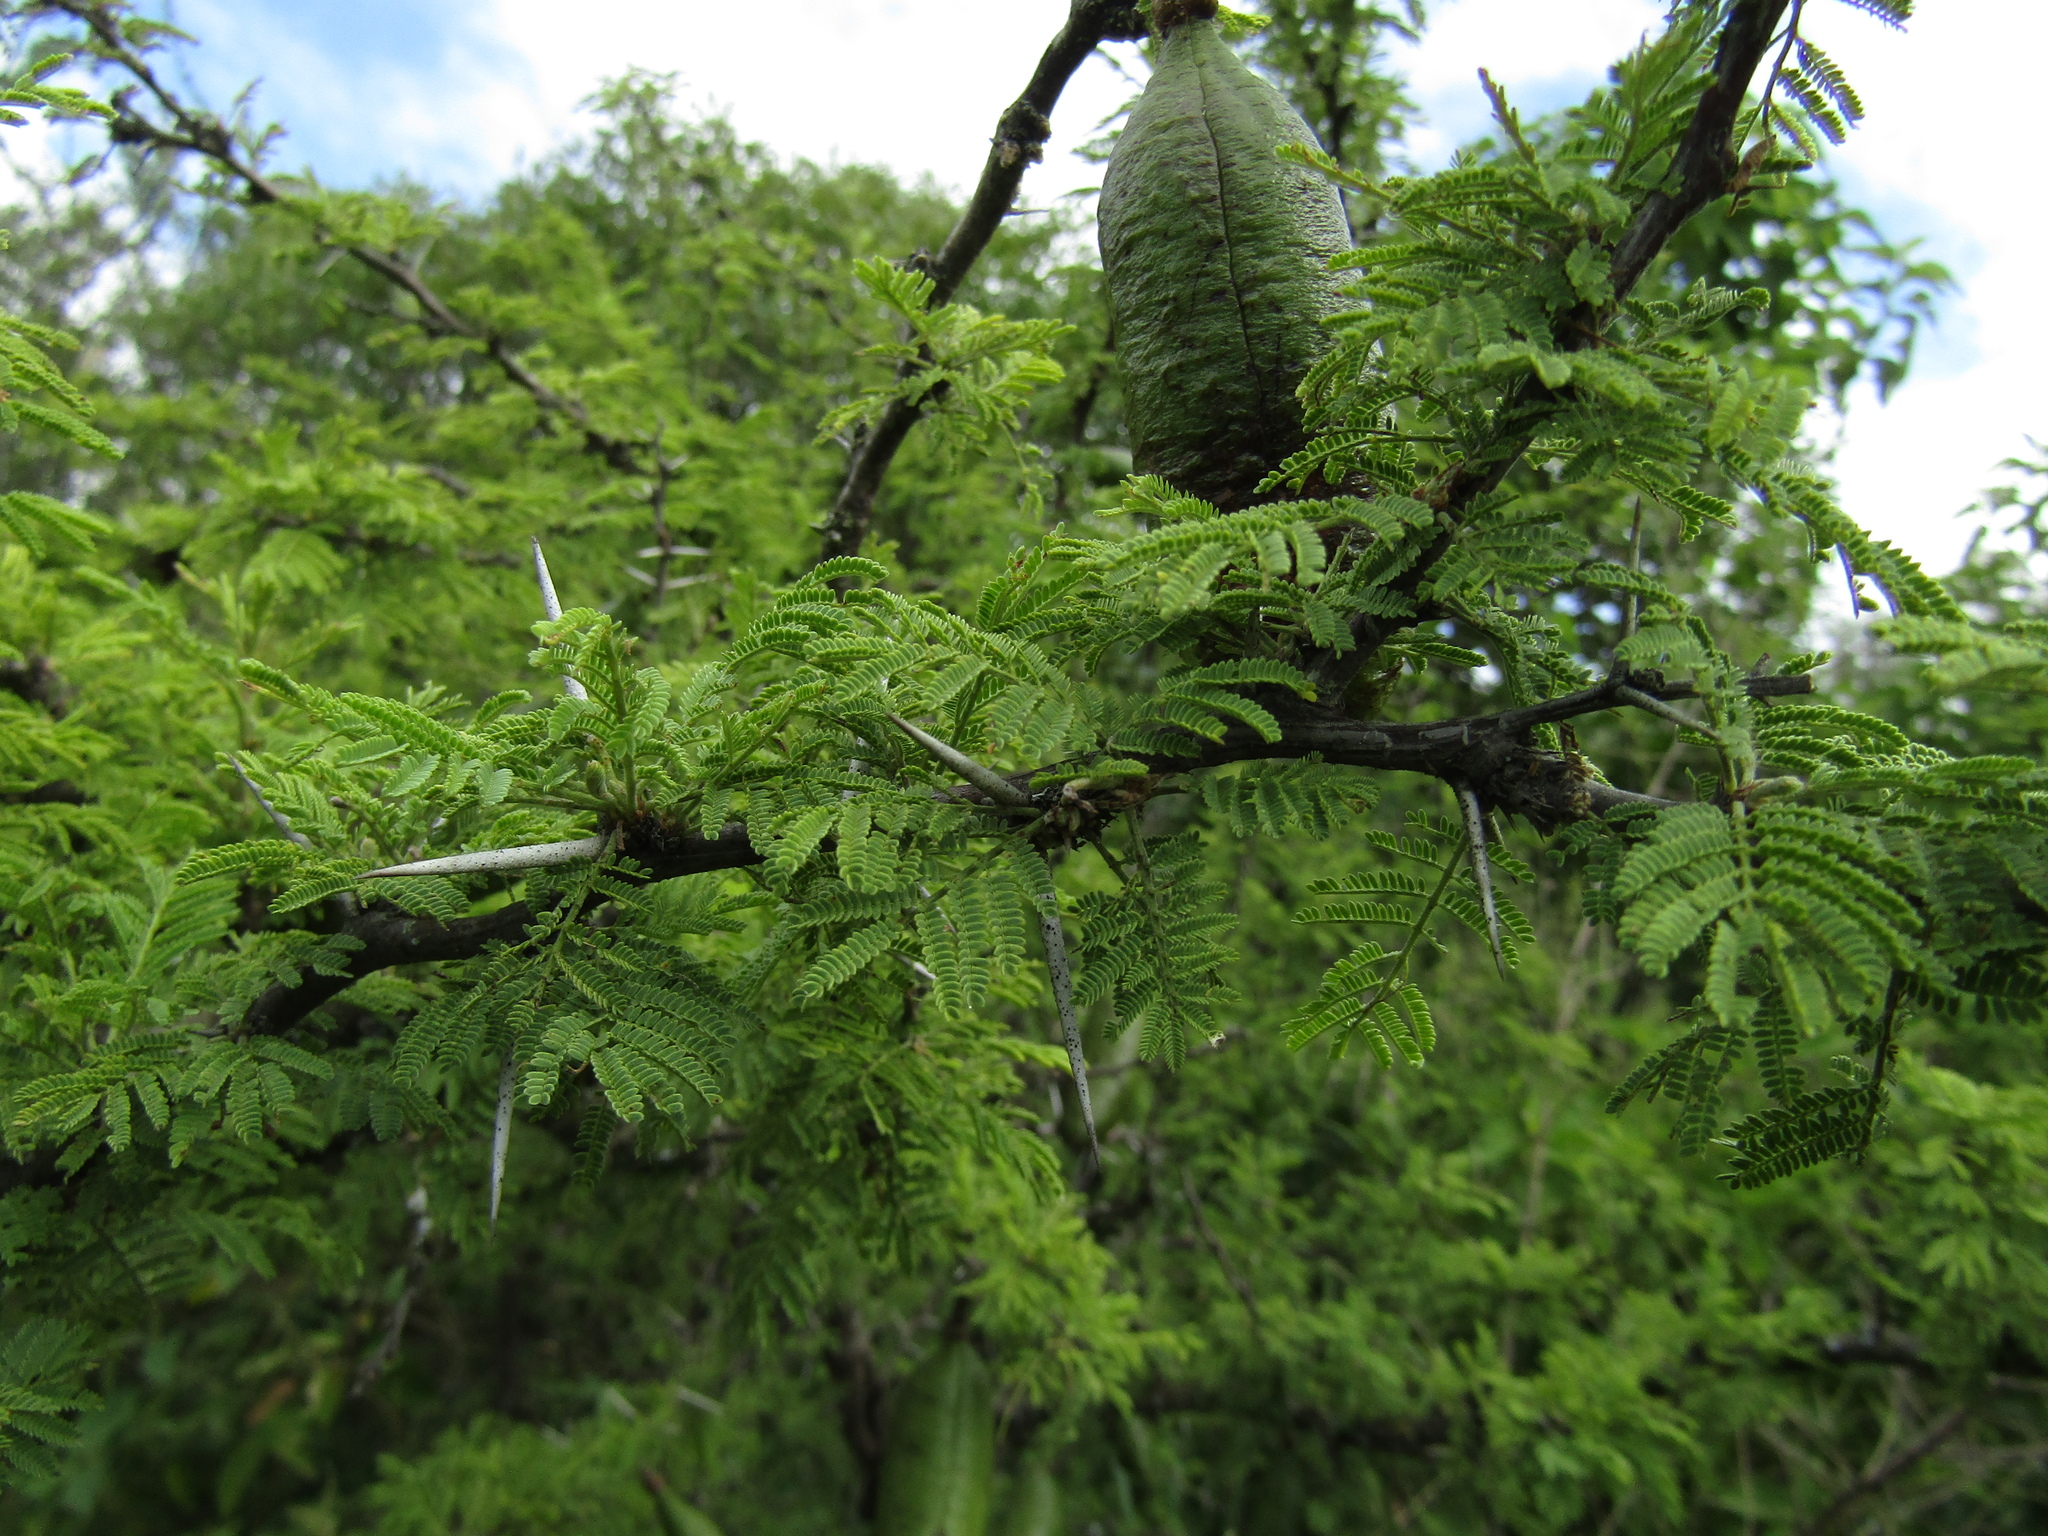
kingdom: Plantae
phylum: Tracheophyta
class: Magnoliopsida
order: Fabales
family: Fabaceae
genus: Vachellia
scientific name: Vachellia caven
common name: Roman cassie
